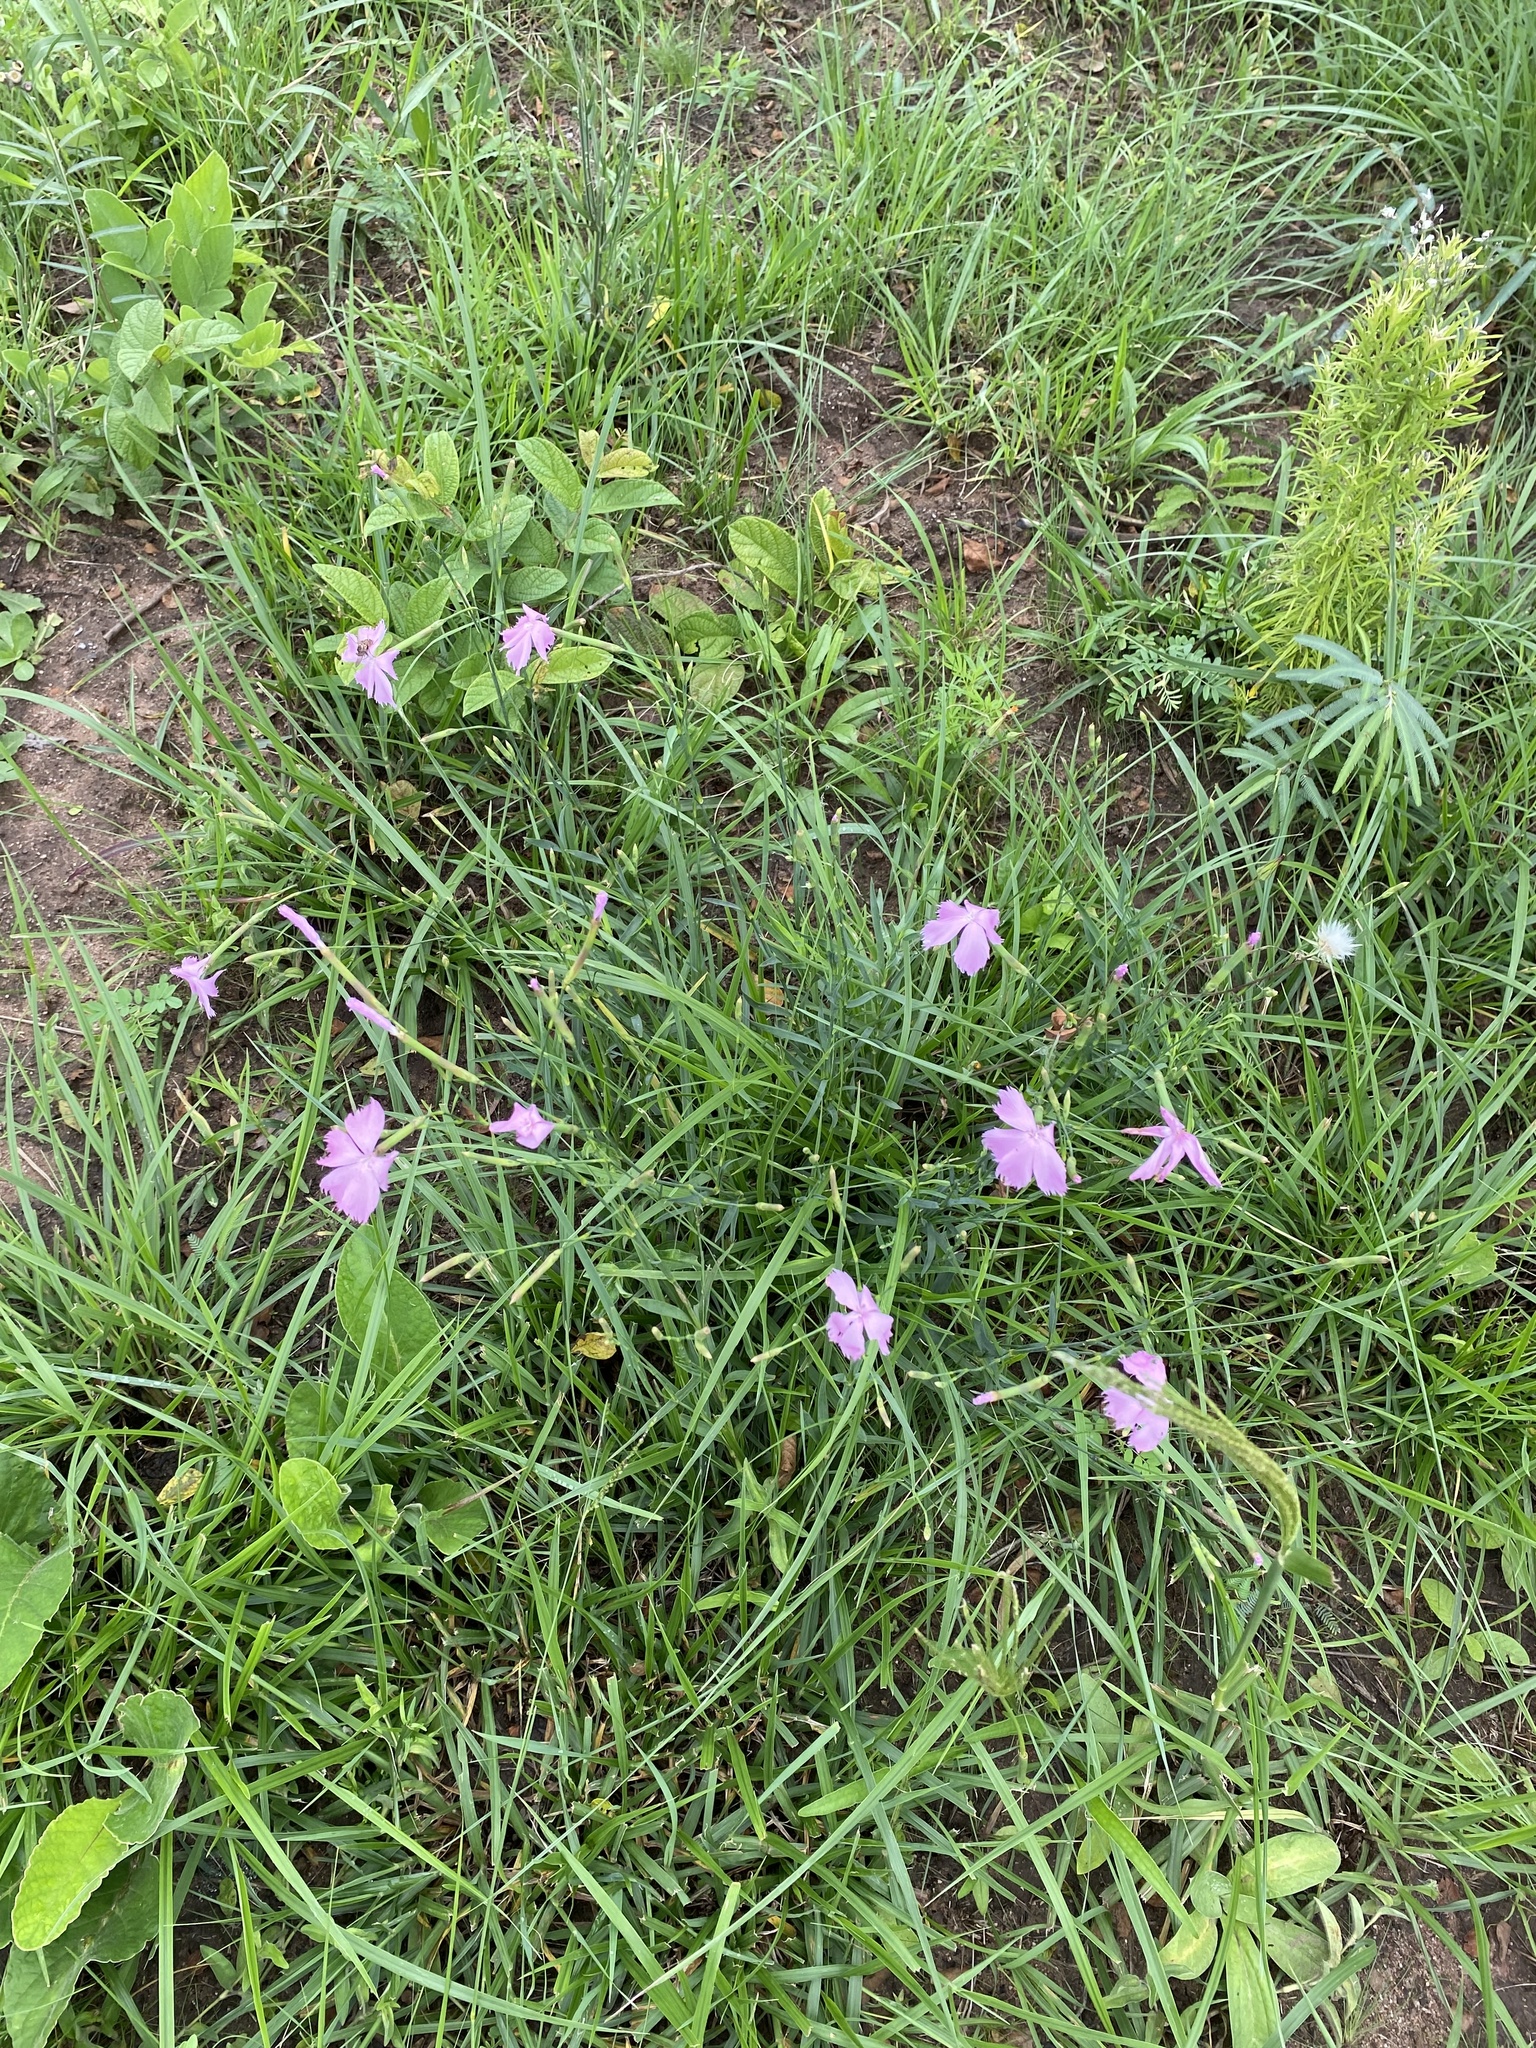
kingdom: Plantae
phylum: Tracheophyta
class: Magnoliopsida
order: Caryophyllales
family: Caryophyllaceae
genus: Dianthus
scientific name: Dianthus zeyheri
